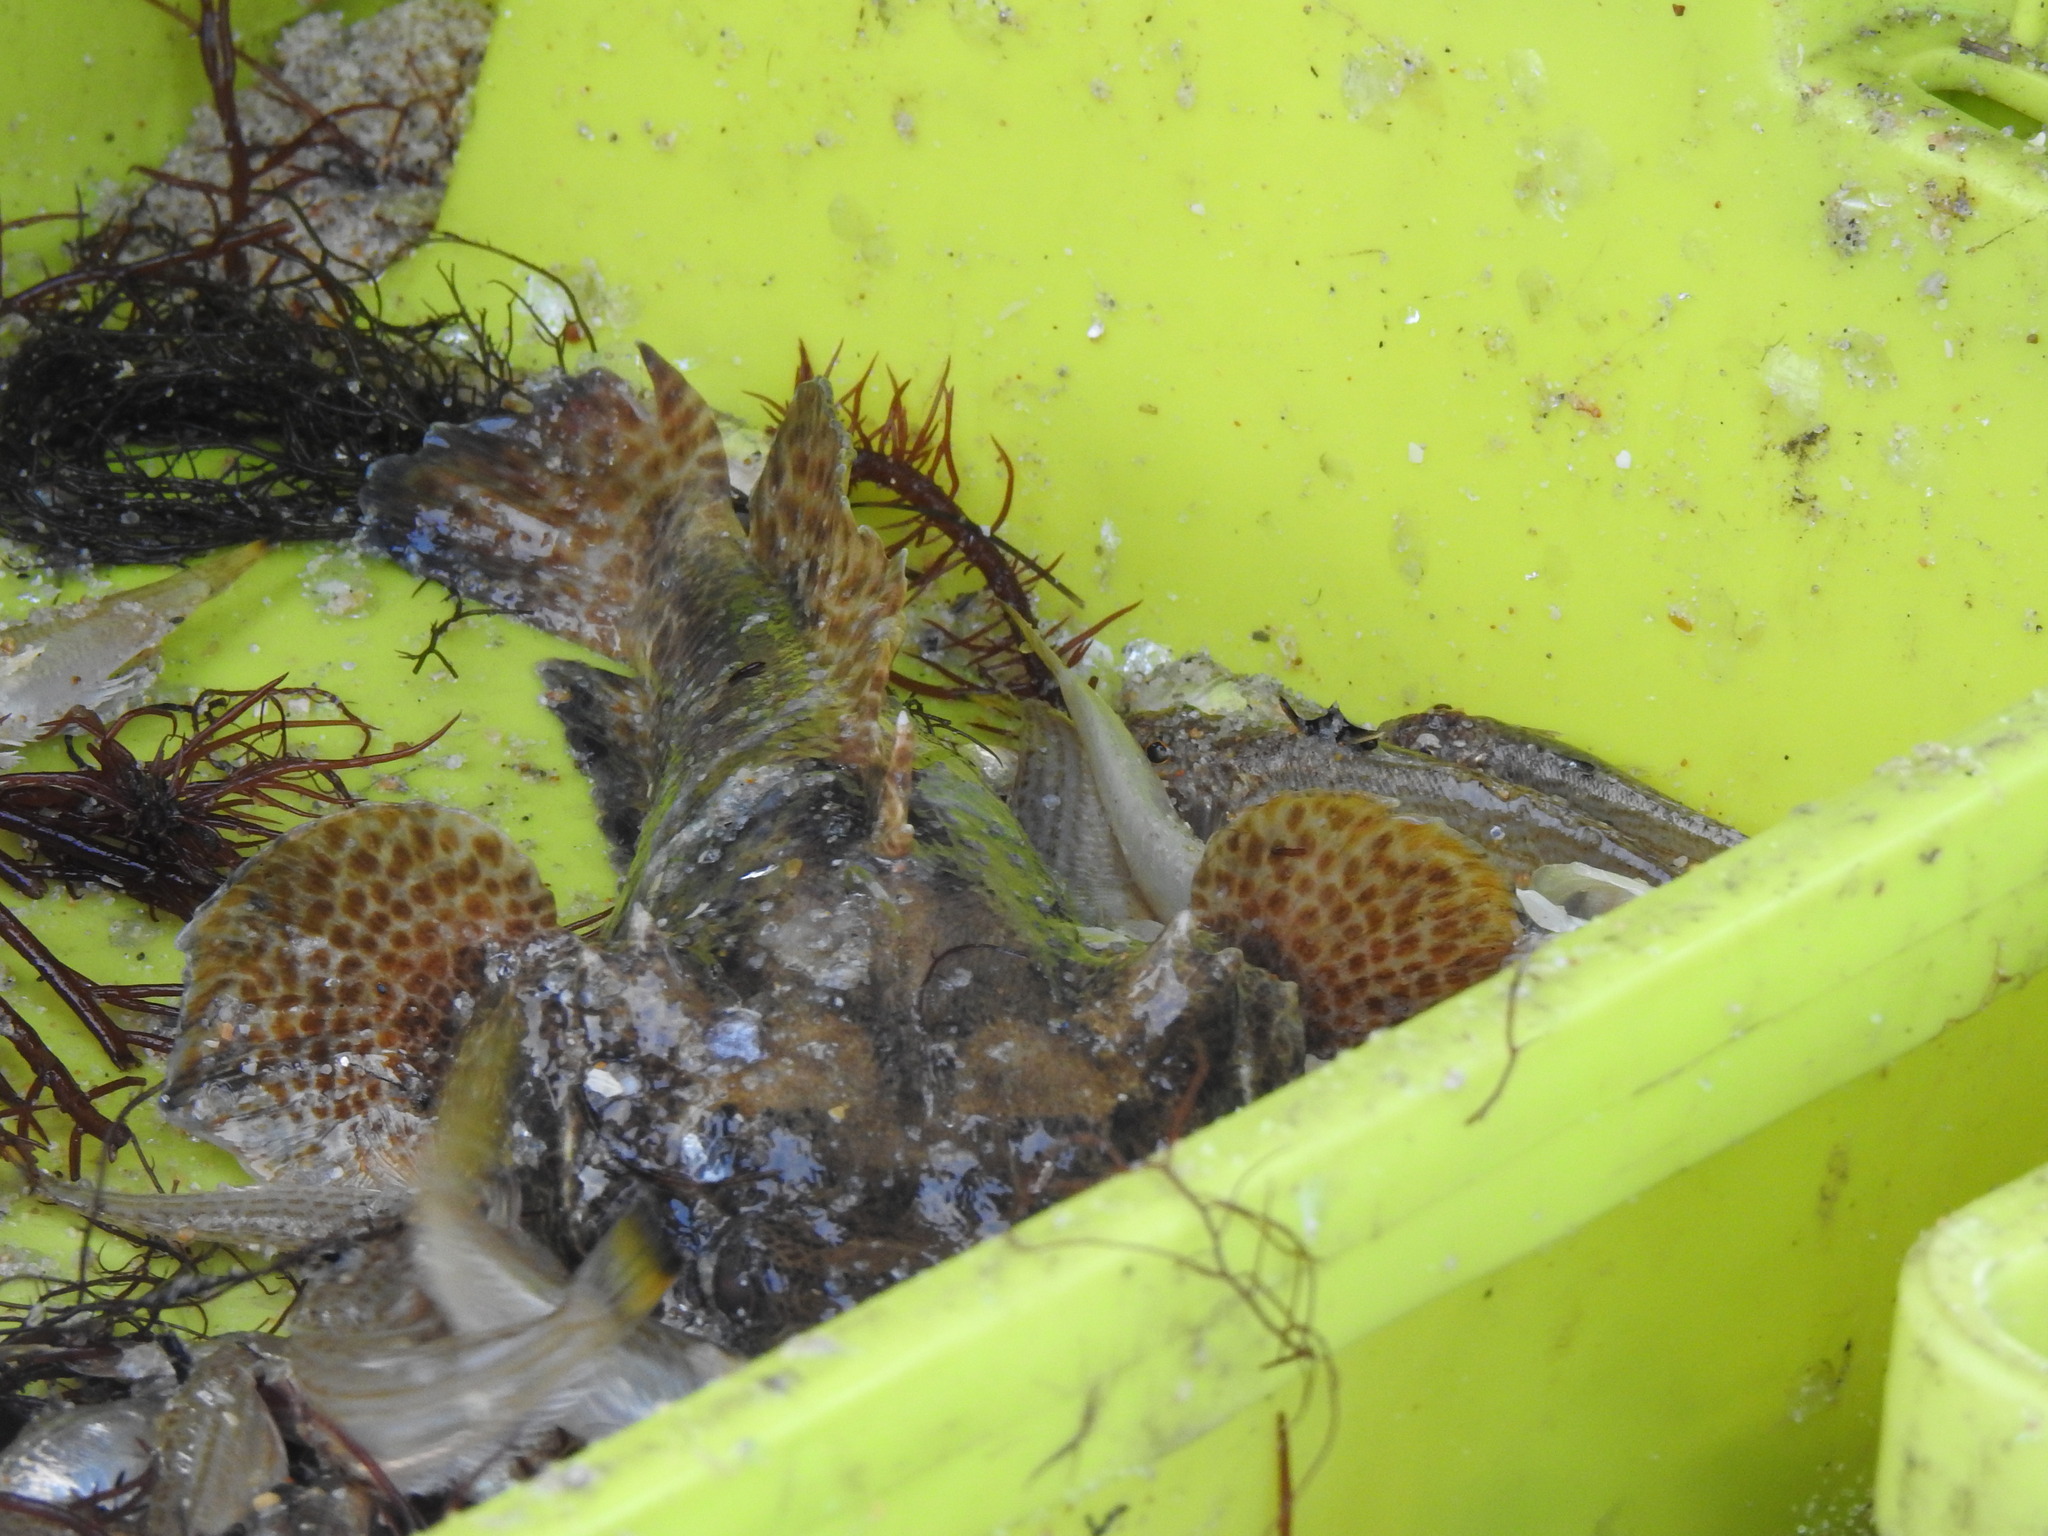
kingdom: Animalia
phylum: Chordata
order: Batrachoidiformes
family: Batrachoididae
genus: Halobatrachus
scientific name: Halobatrachus didactylus
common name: Lusitanian toadfish
